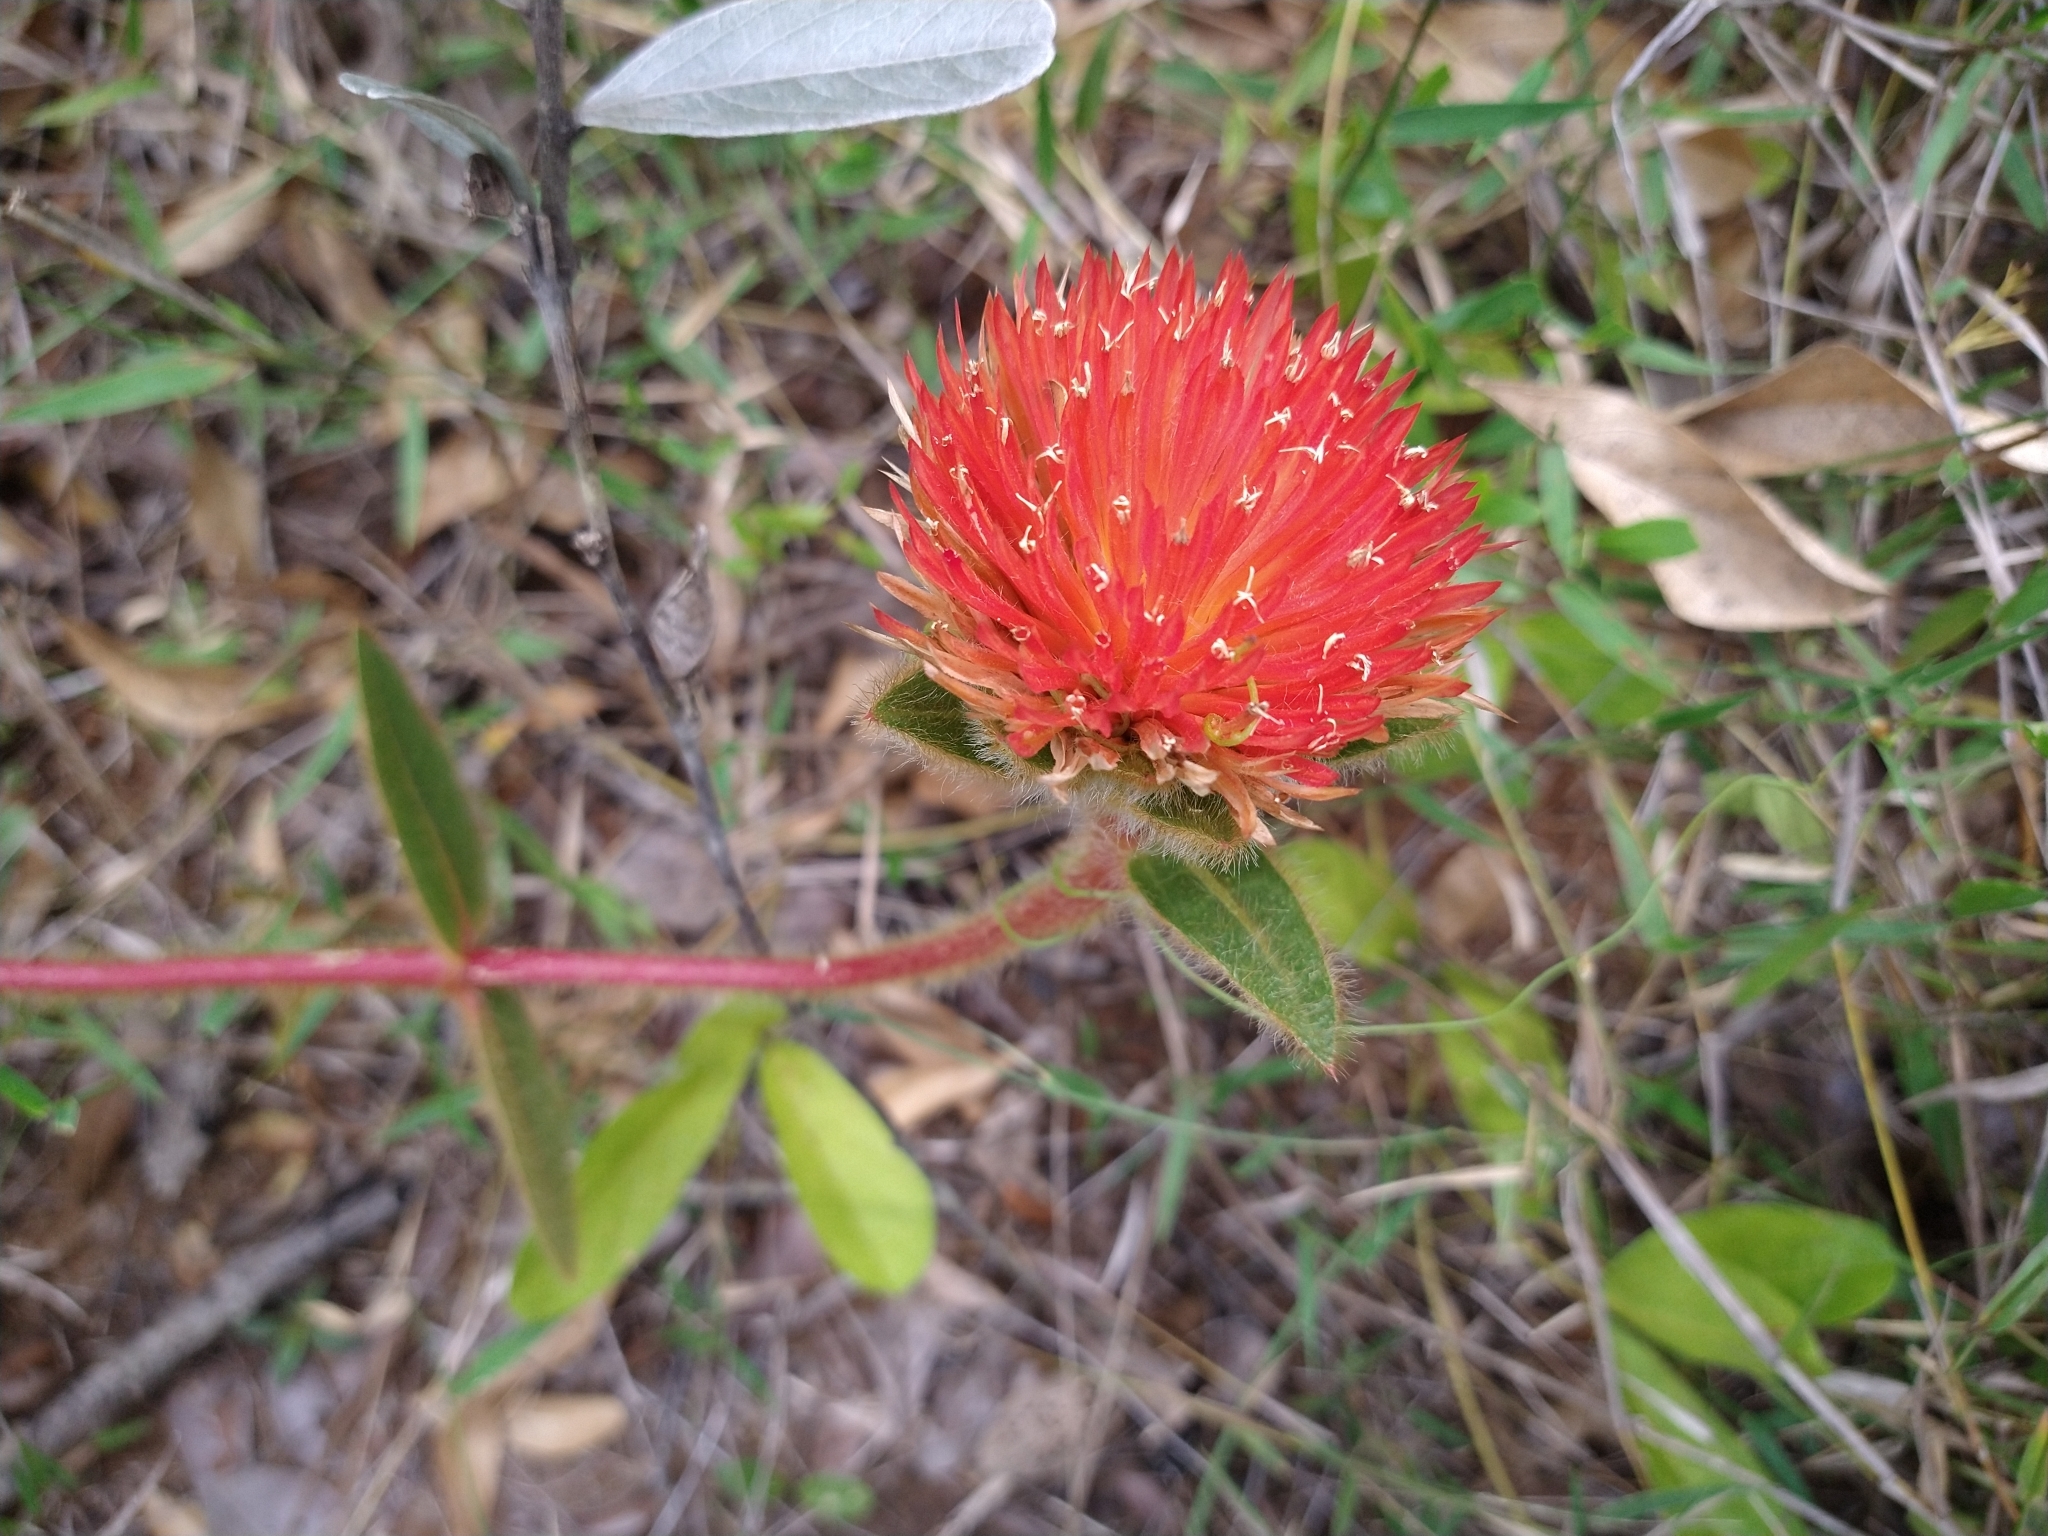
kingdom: Plantae
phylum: Tracheophyta
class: Magnoliopsida
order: Caryophyllales
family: Amaranthaceae
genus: Gomphrena
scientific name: Gomphrena arborescens
